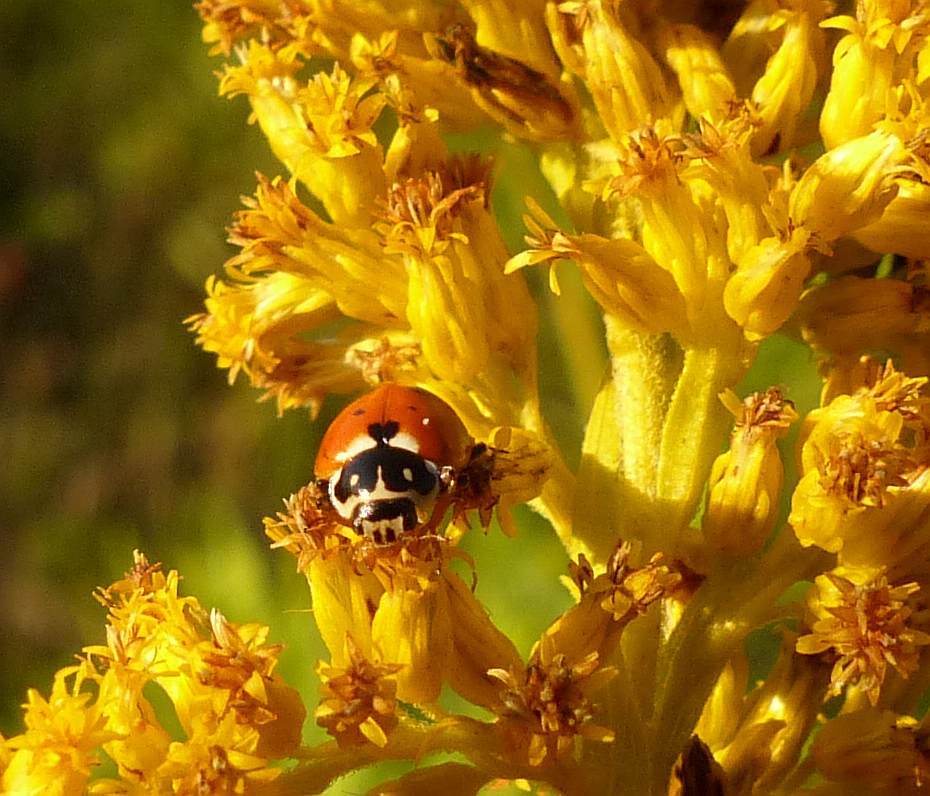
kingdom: Animalia
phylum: Arthropoda
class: Insecta
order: Coleoptera
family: Coccinellidae
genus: Hippodamia
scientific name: Hippodamia variegata
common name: Ladybird beetle
